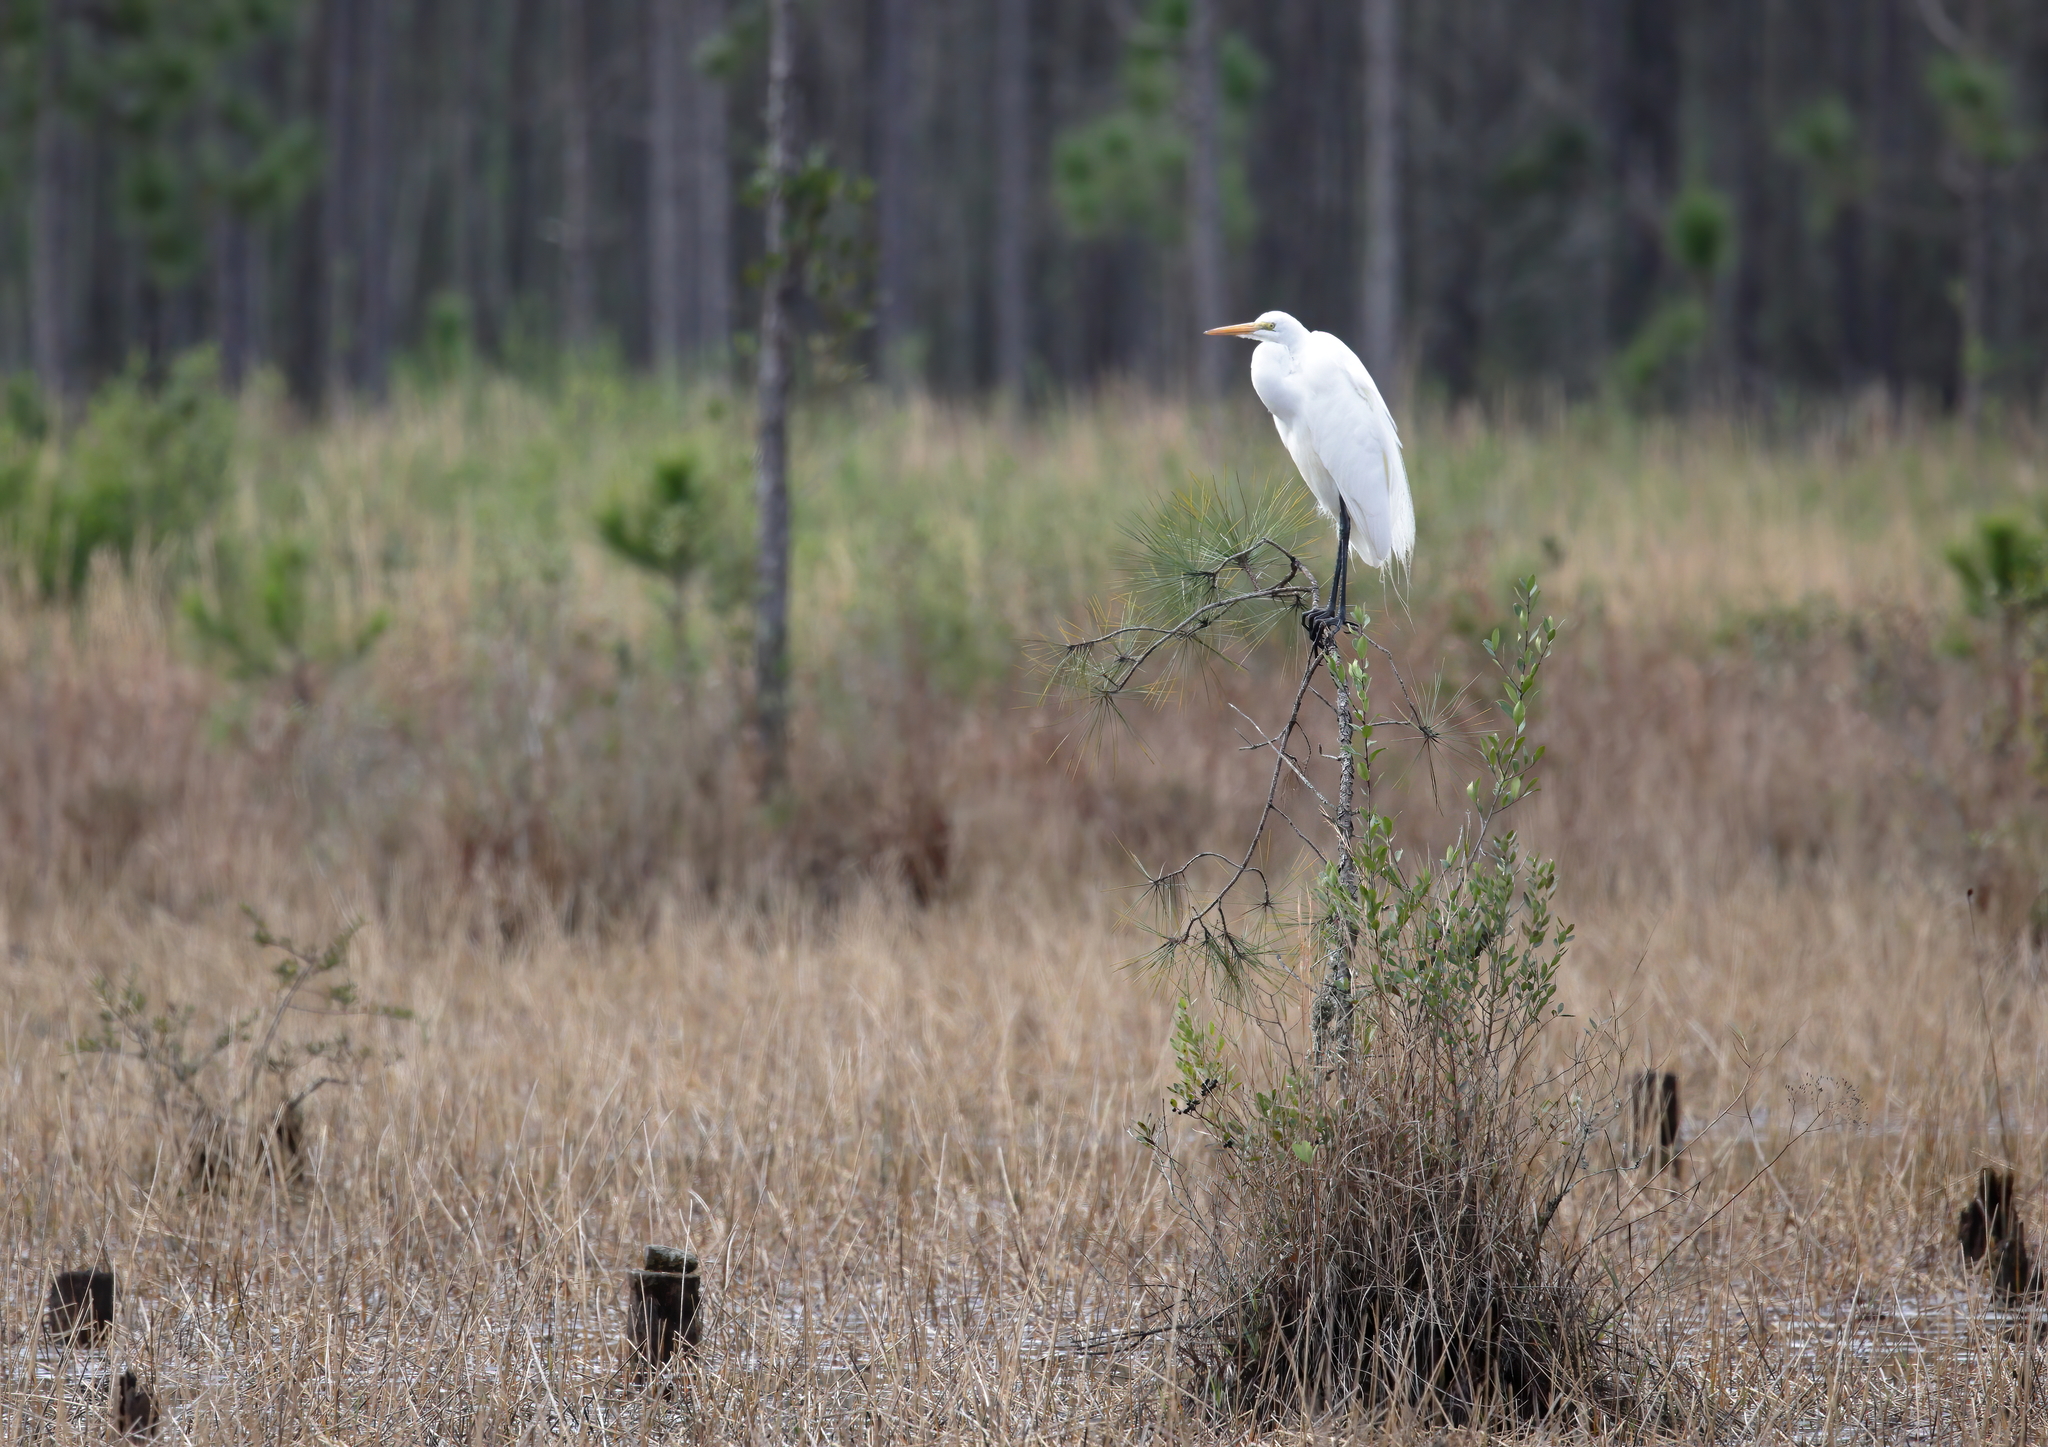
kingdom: Animalia
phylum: Chordata
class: Aves
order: Pelecaniformes
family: Ardeidae
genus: Ardea
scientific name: Ardea alba
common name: Great egret
